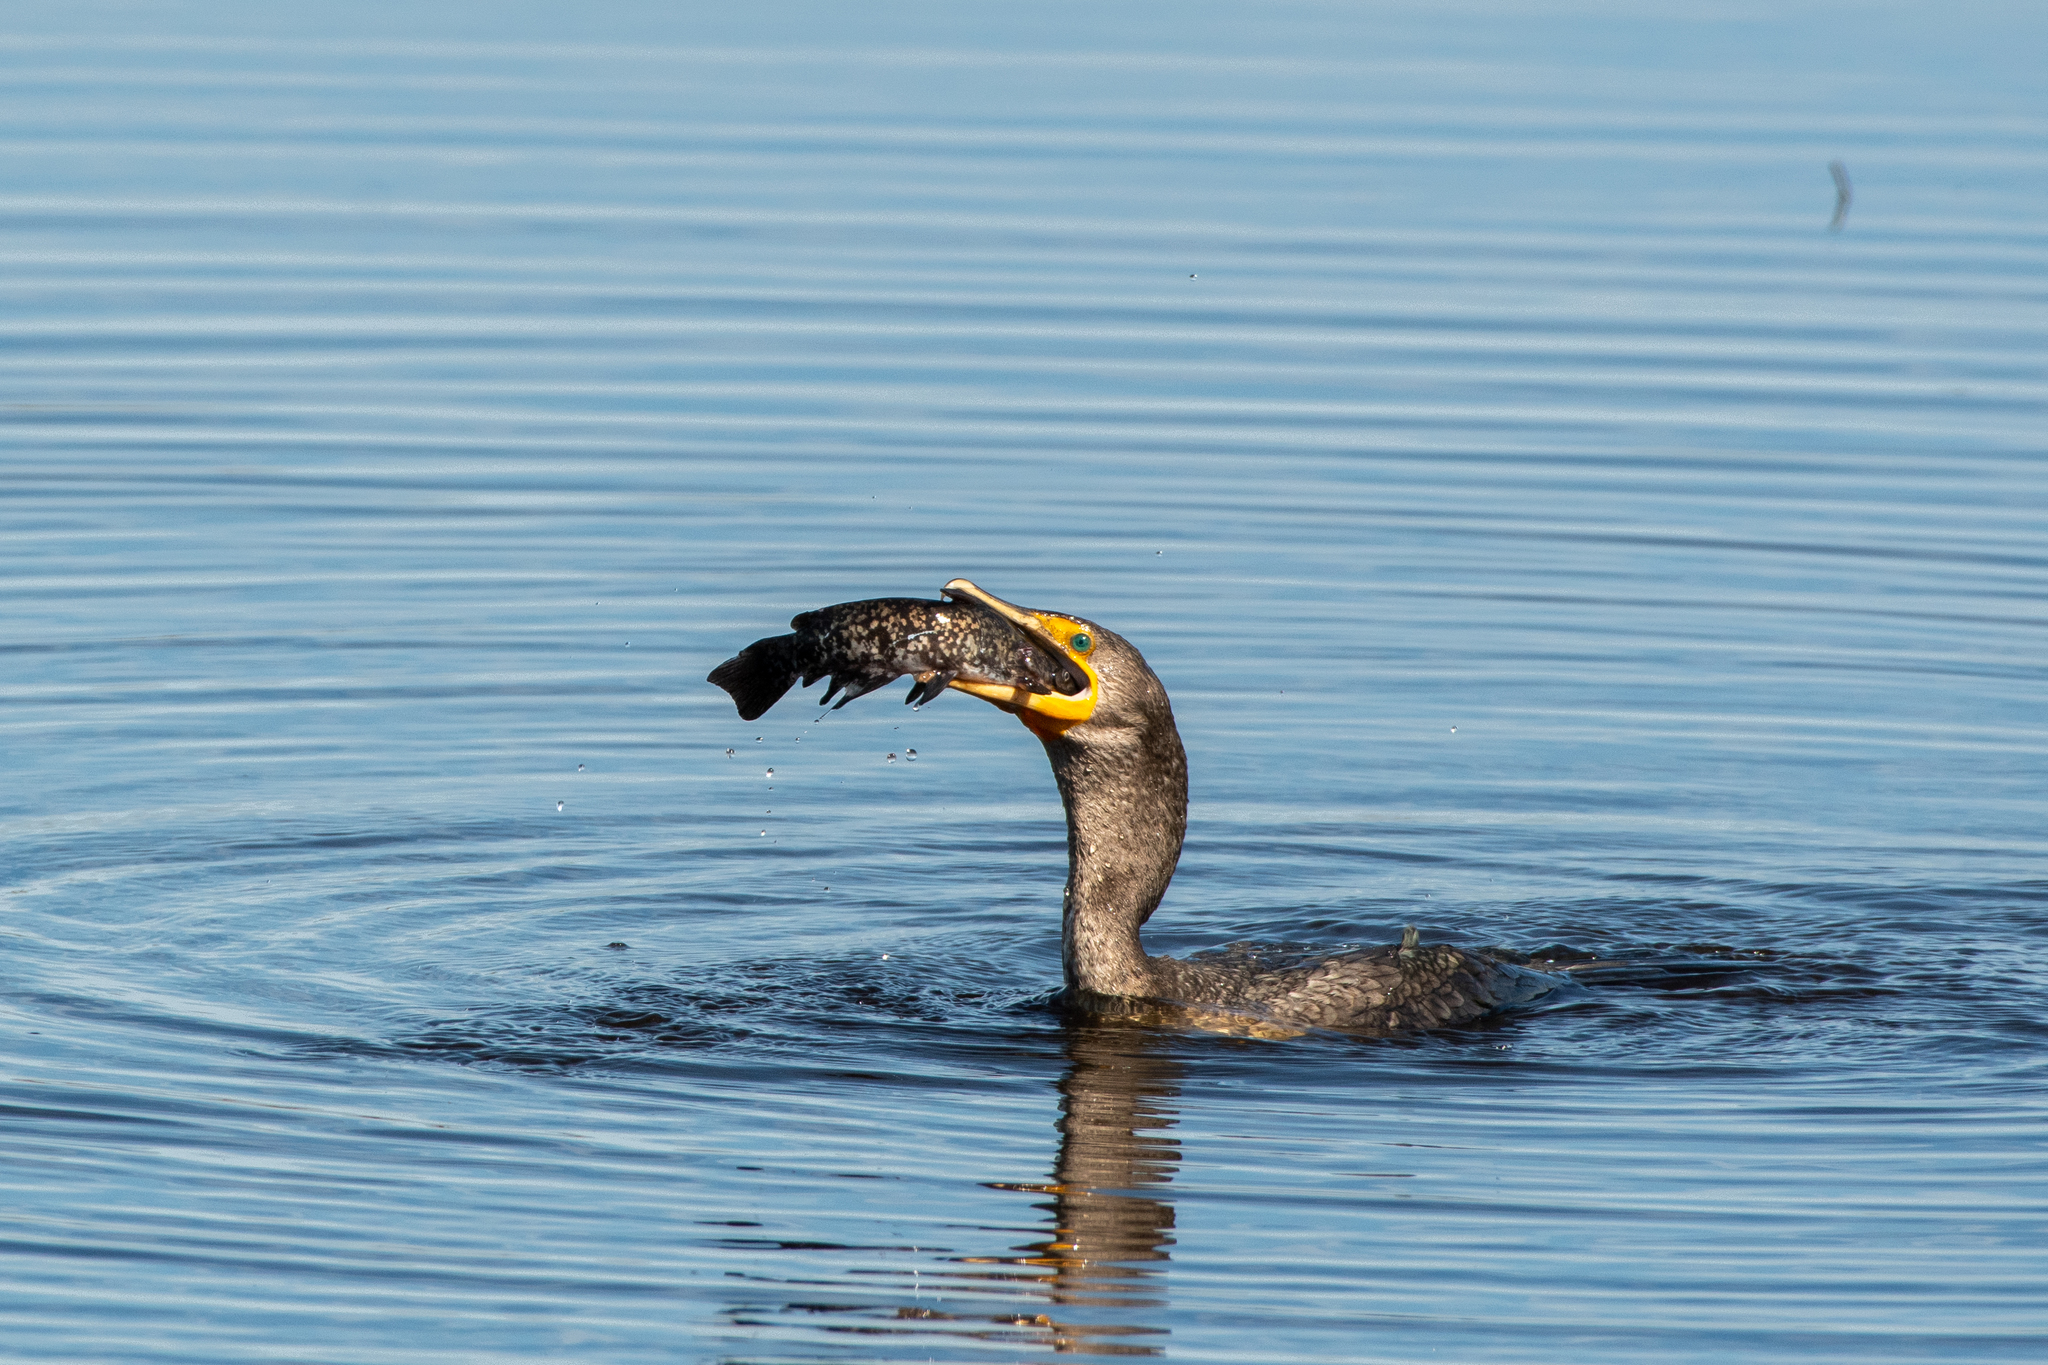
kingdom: Animalia
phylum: Chordata
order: Siluriformes
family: Ictaluridae
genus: Ameiurus
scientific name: Ameiurus nebulosus
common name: Brown bullhead
